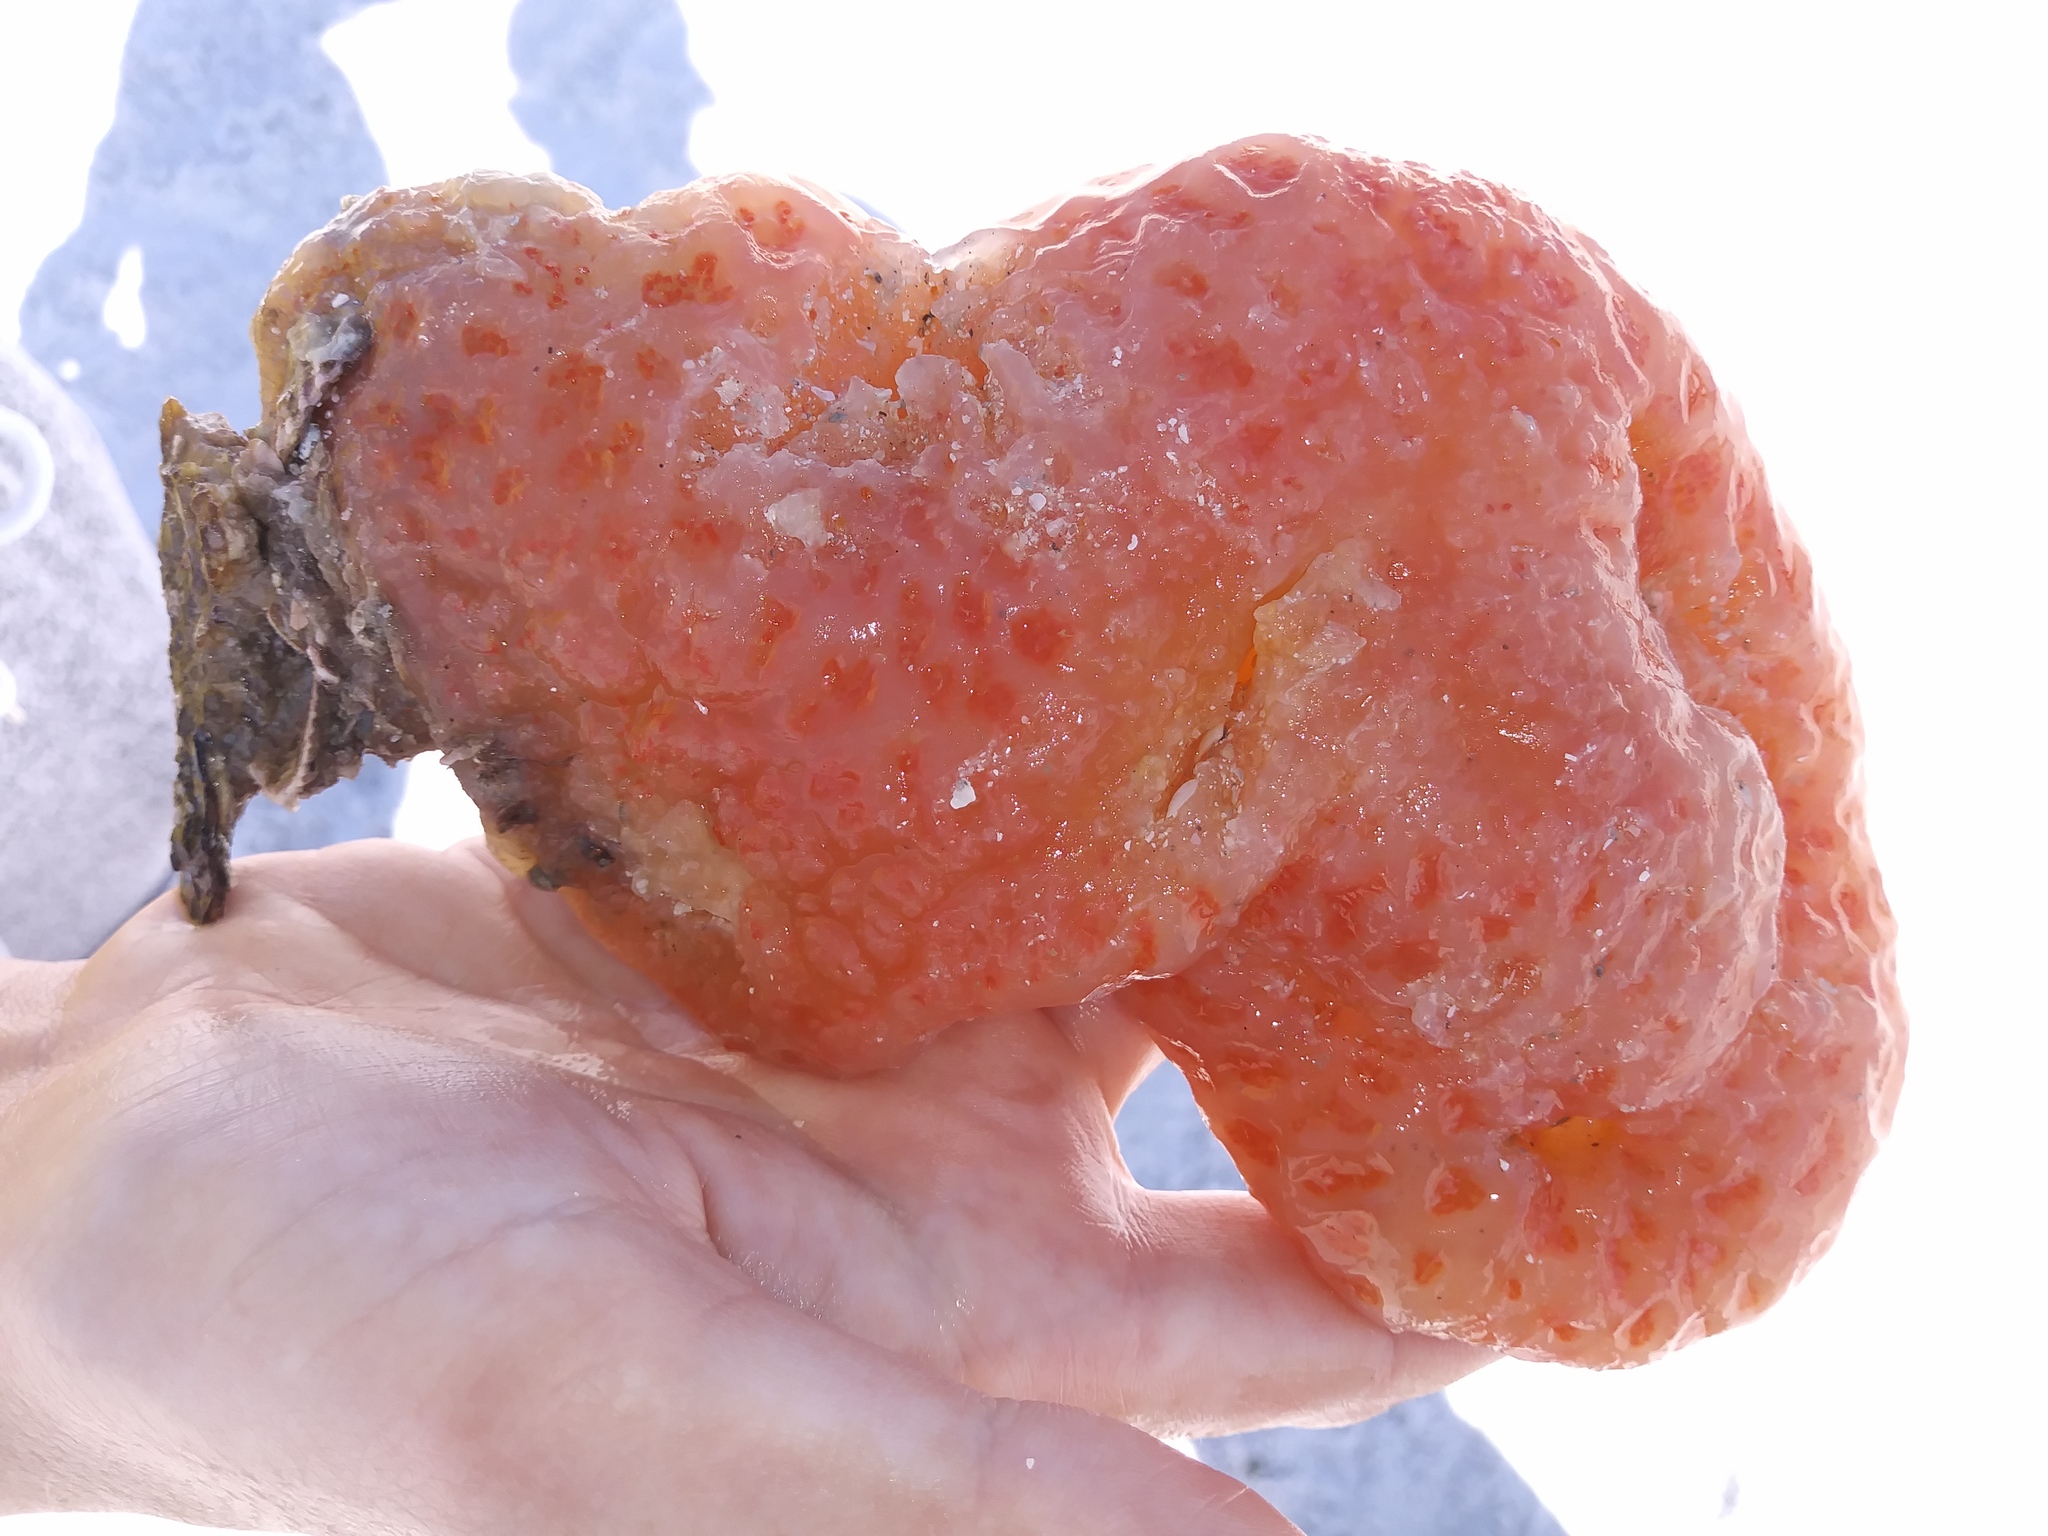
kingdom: Animalia
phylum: Chordata
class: Ascidiacea
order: Aplousobranchia
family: Polyclinidae
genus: Aplidium
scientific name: Aplidium stellatum
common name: Atlantic sea pork
